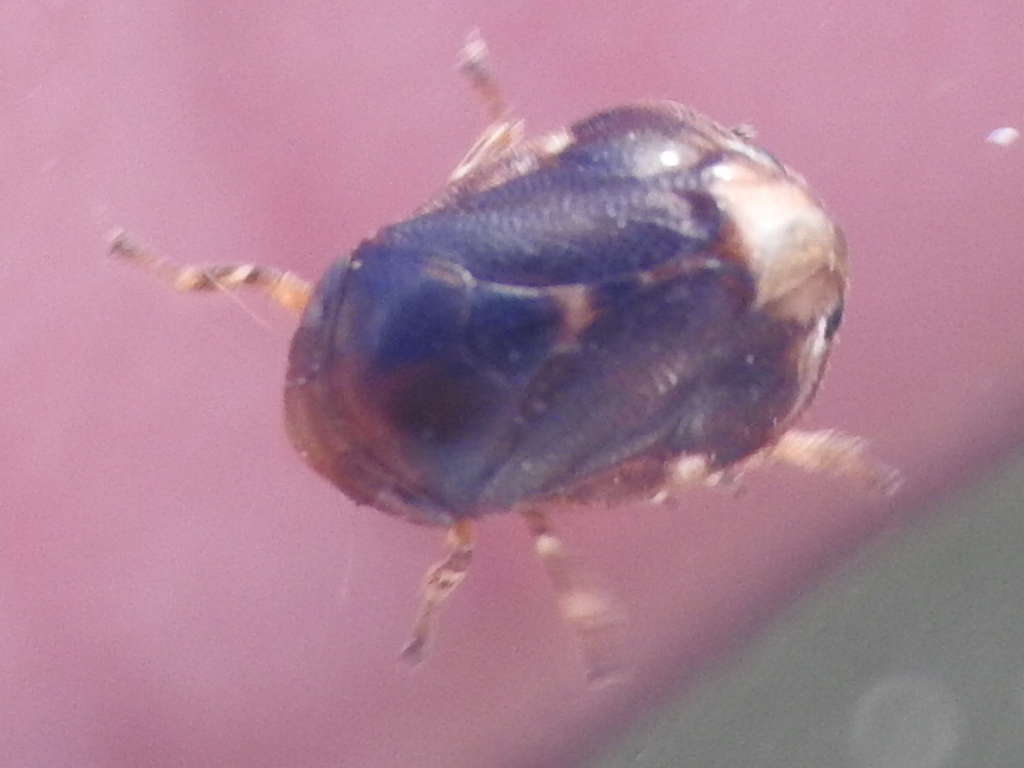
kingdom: Animalia
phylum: Arthropoda
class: Insecta
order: Hemiptera
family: Clastopteridae
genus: Clastoptera
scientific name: Clastoptera xanthocephala
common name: Sunflower spittlebug
